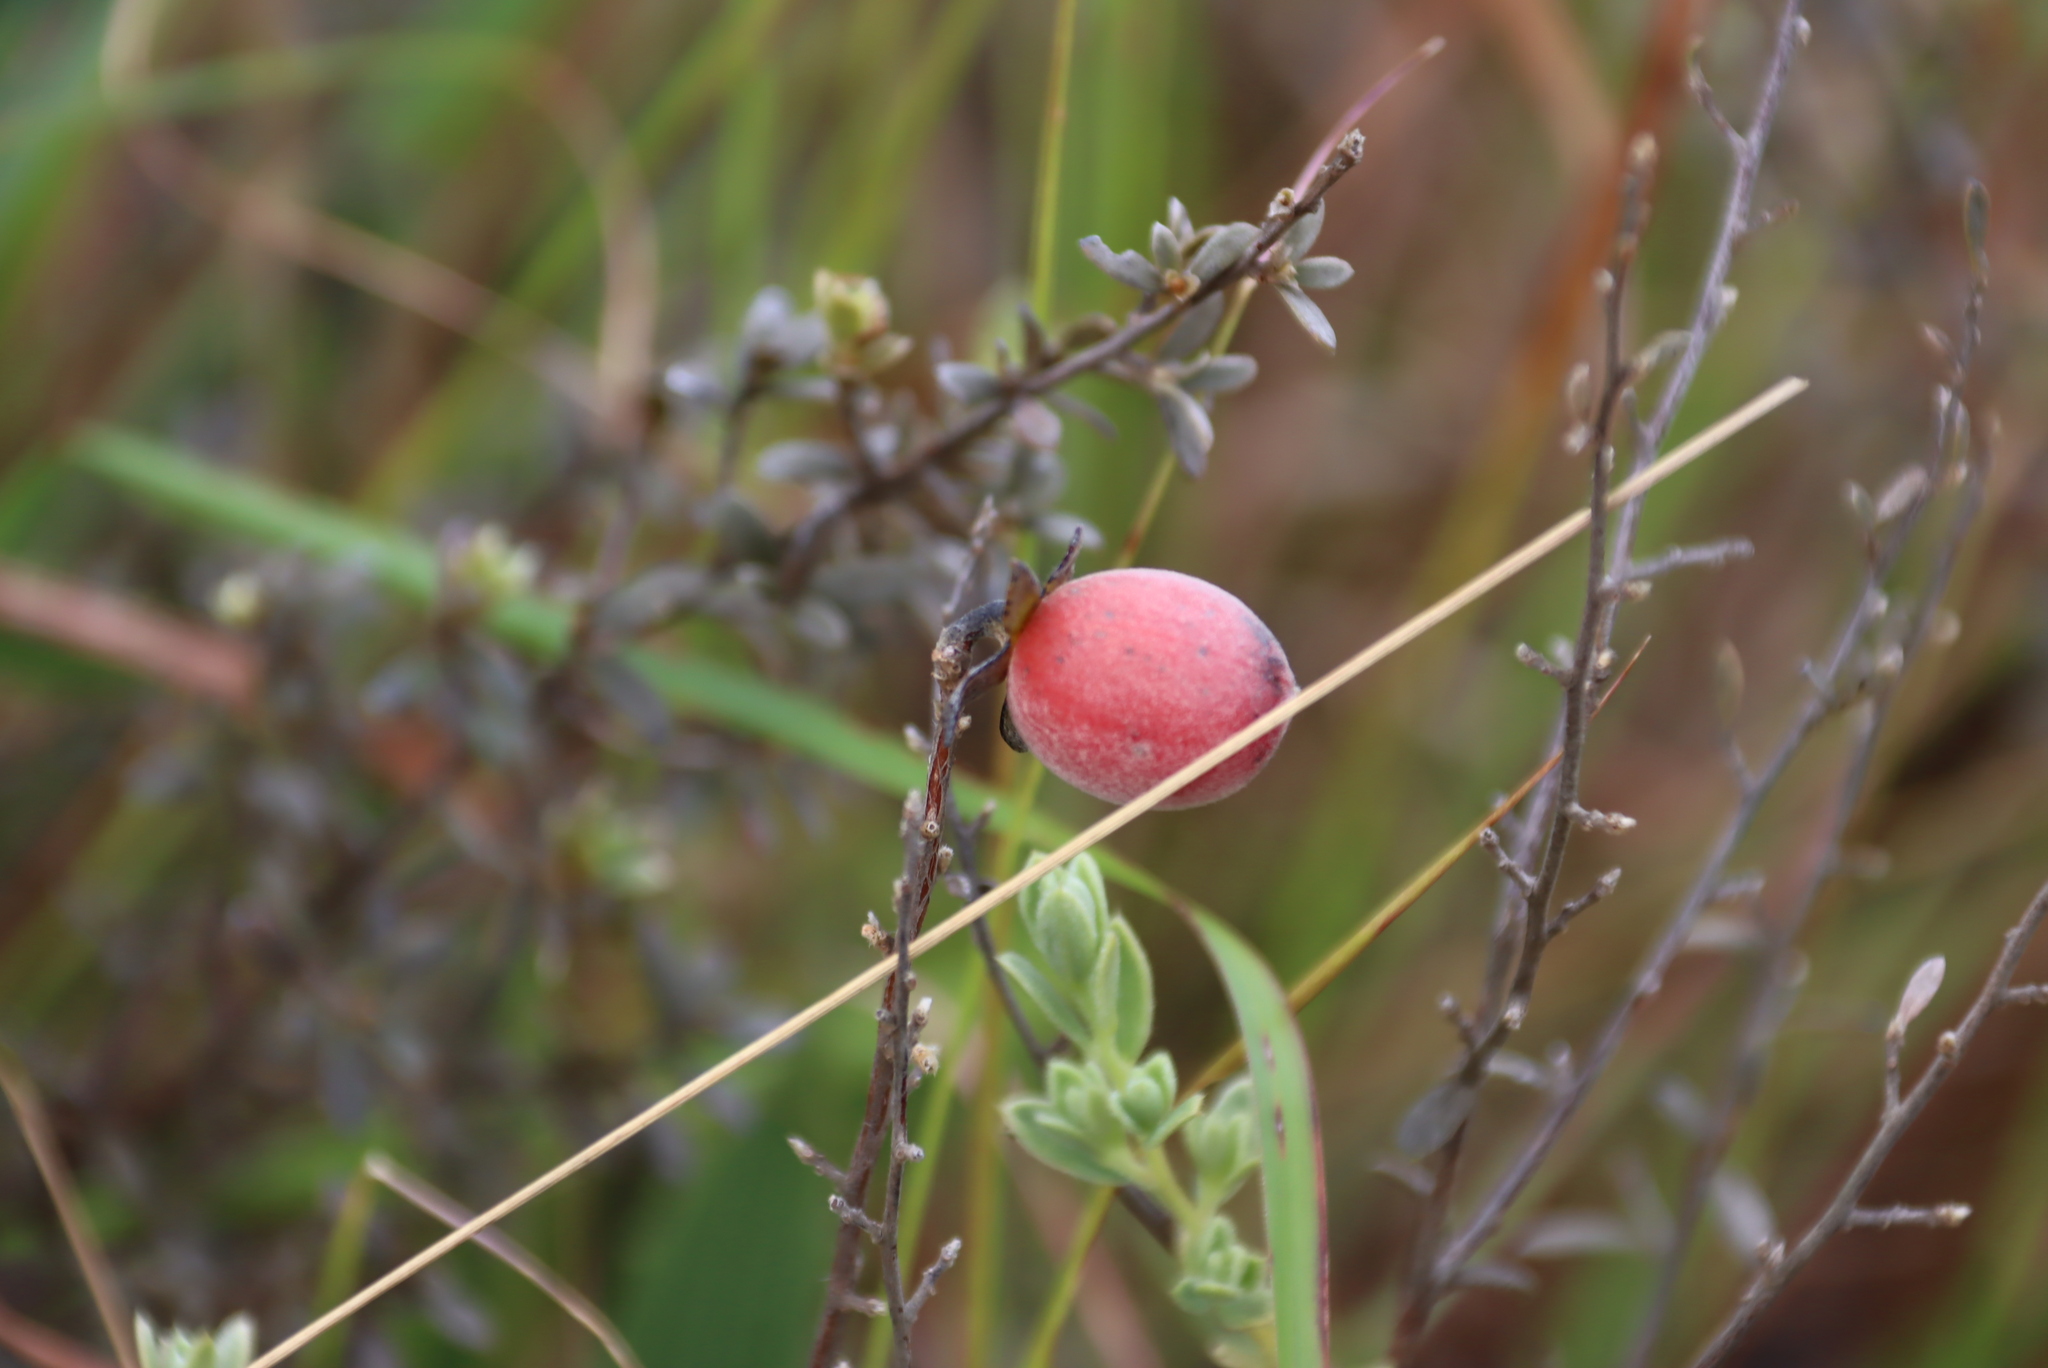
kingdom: Plantae
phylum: Tracheophyta
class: Magnoliopsida
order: Ericales
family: Ebenaceae
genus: Diospyros
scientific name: Diospyros pubescens
